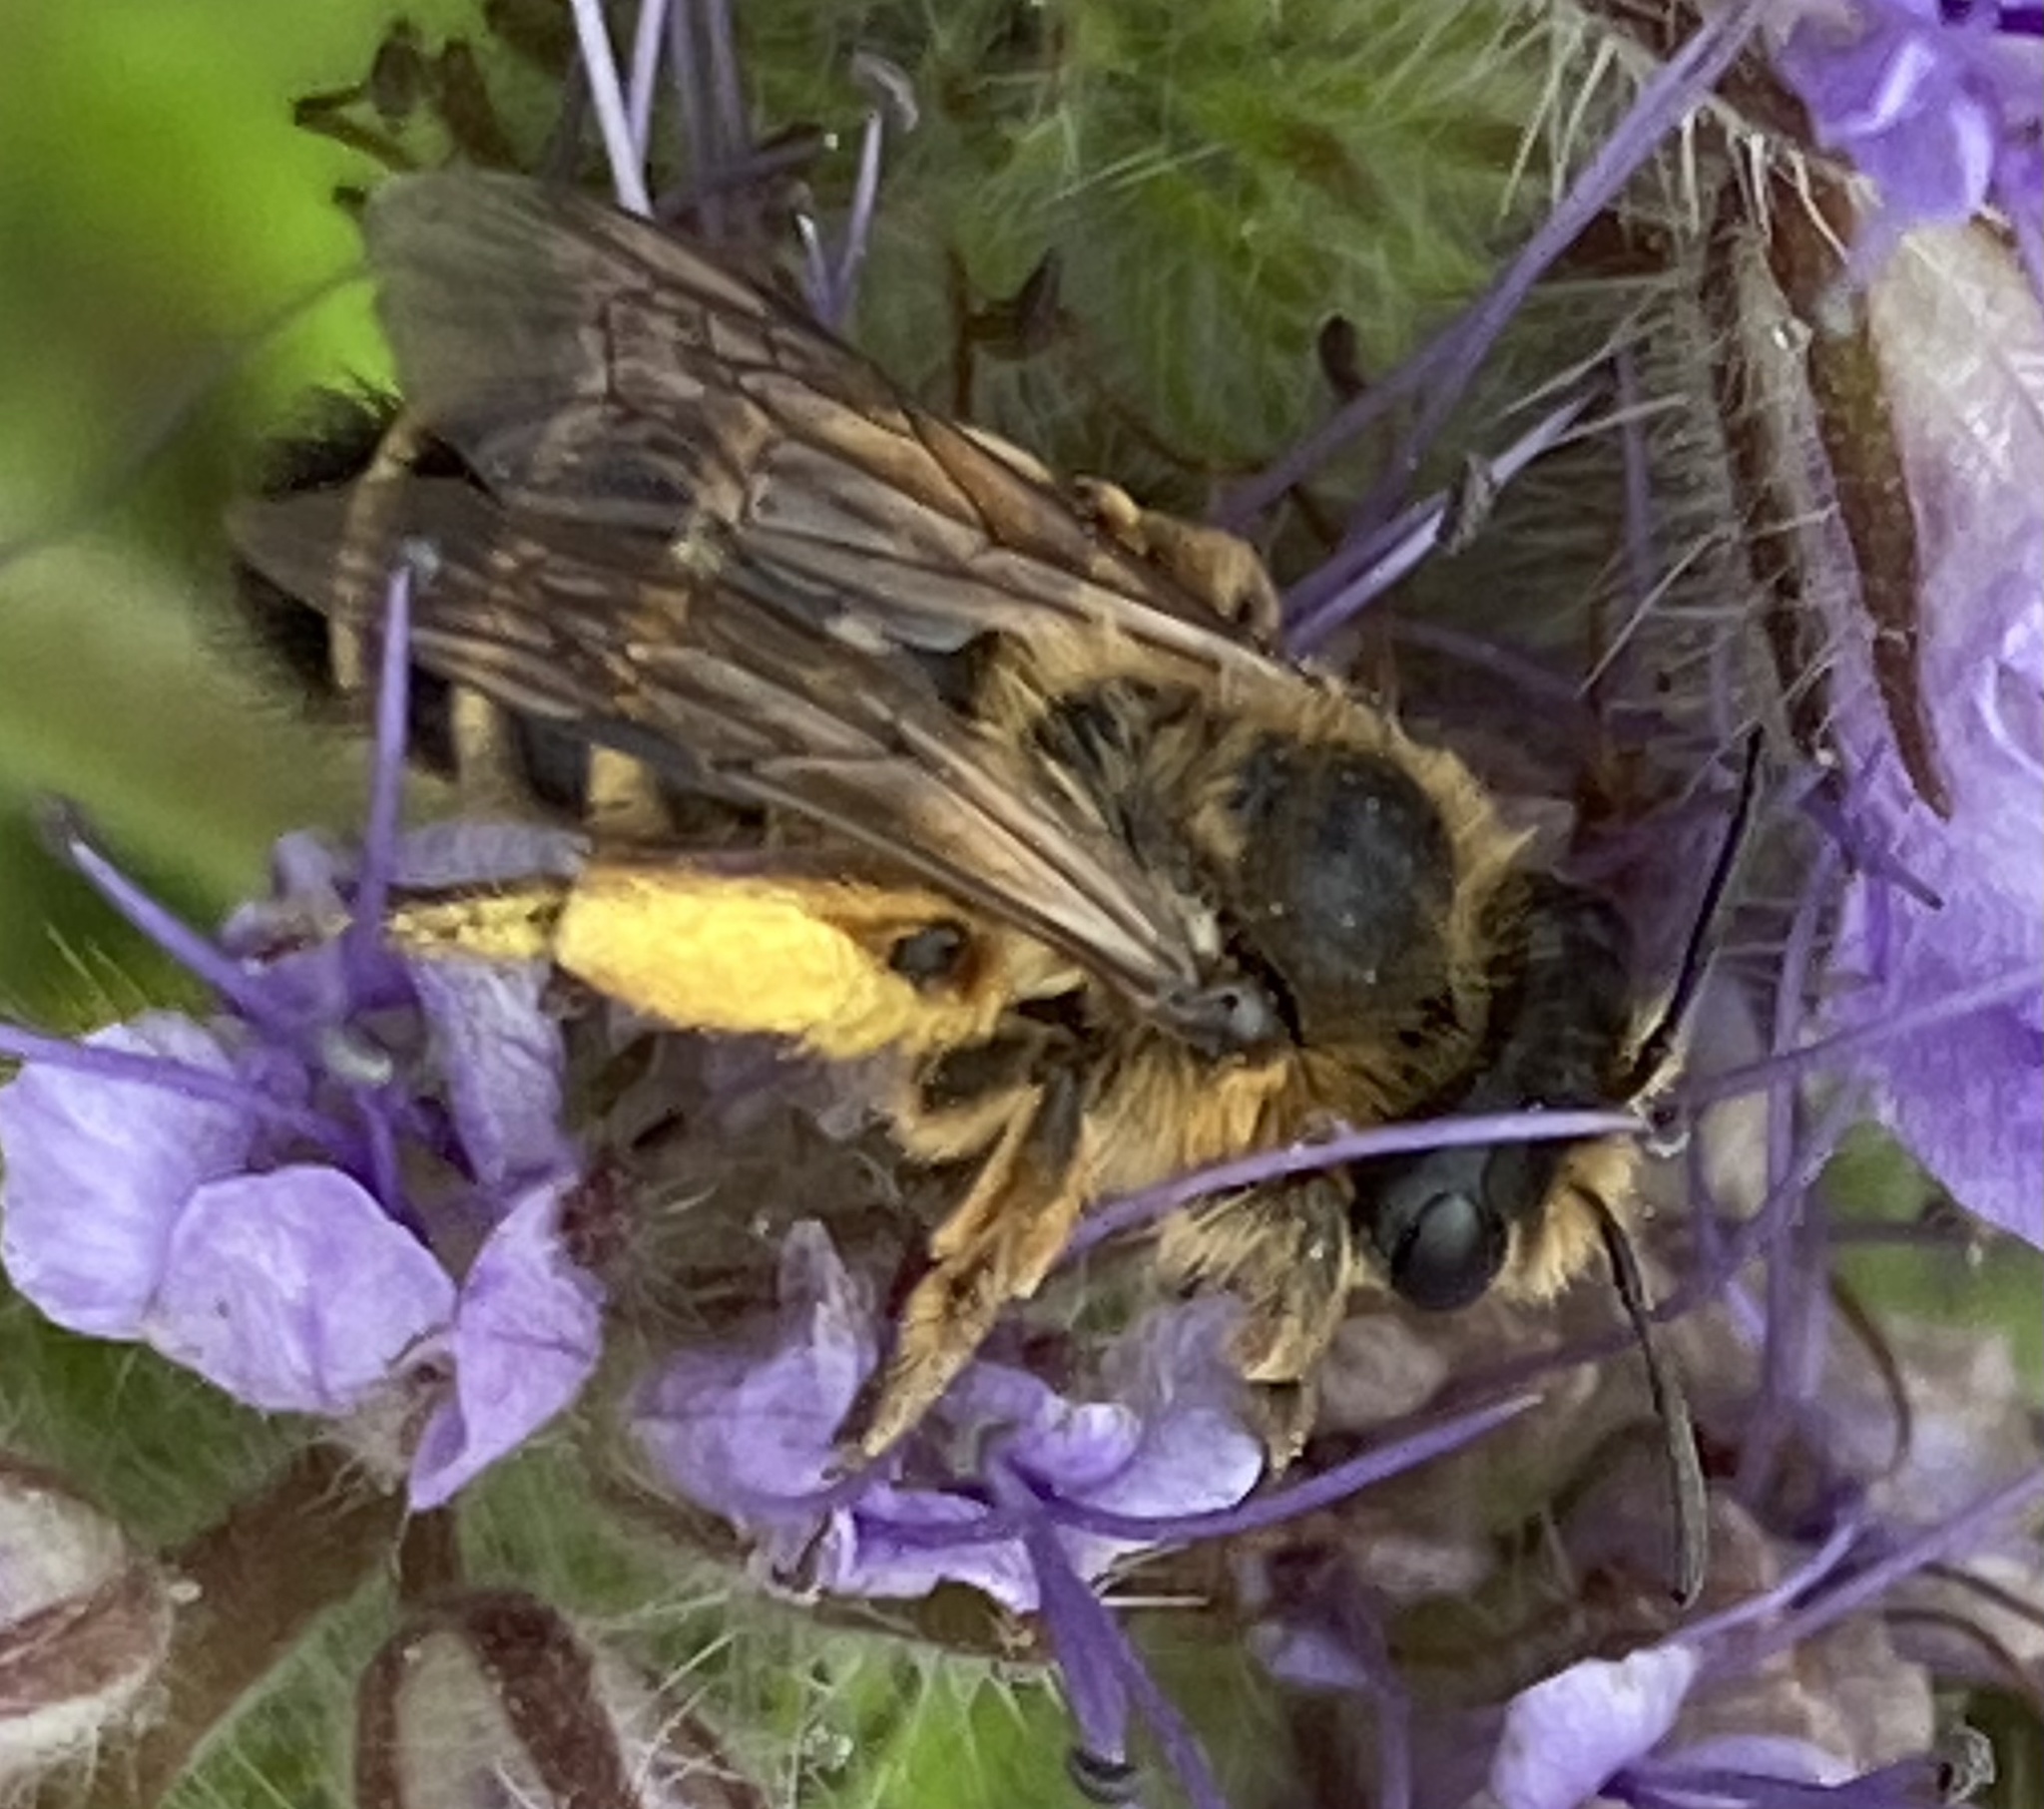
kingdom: Animalia
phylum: Arthropoda
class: Insecta
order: Hymenoptera
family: Andrenidae
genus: Andrena
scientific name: Andrena flavipes
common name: Yellow-legged mining bee
